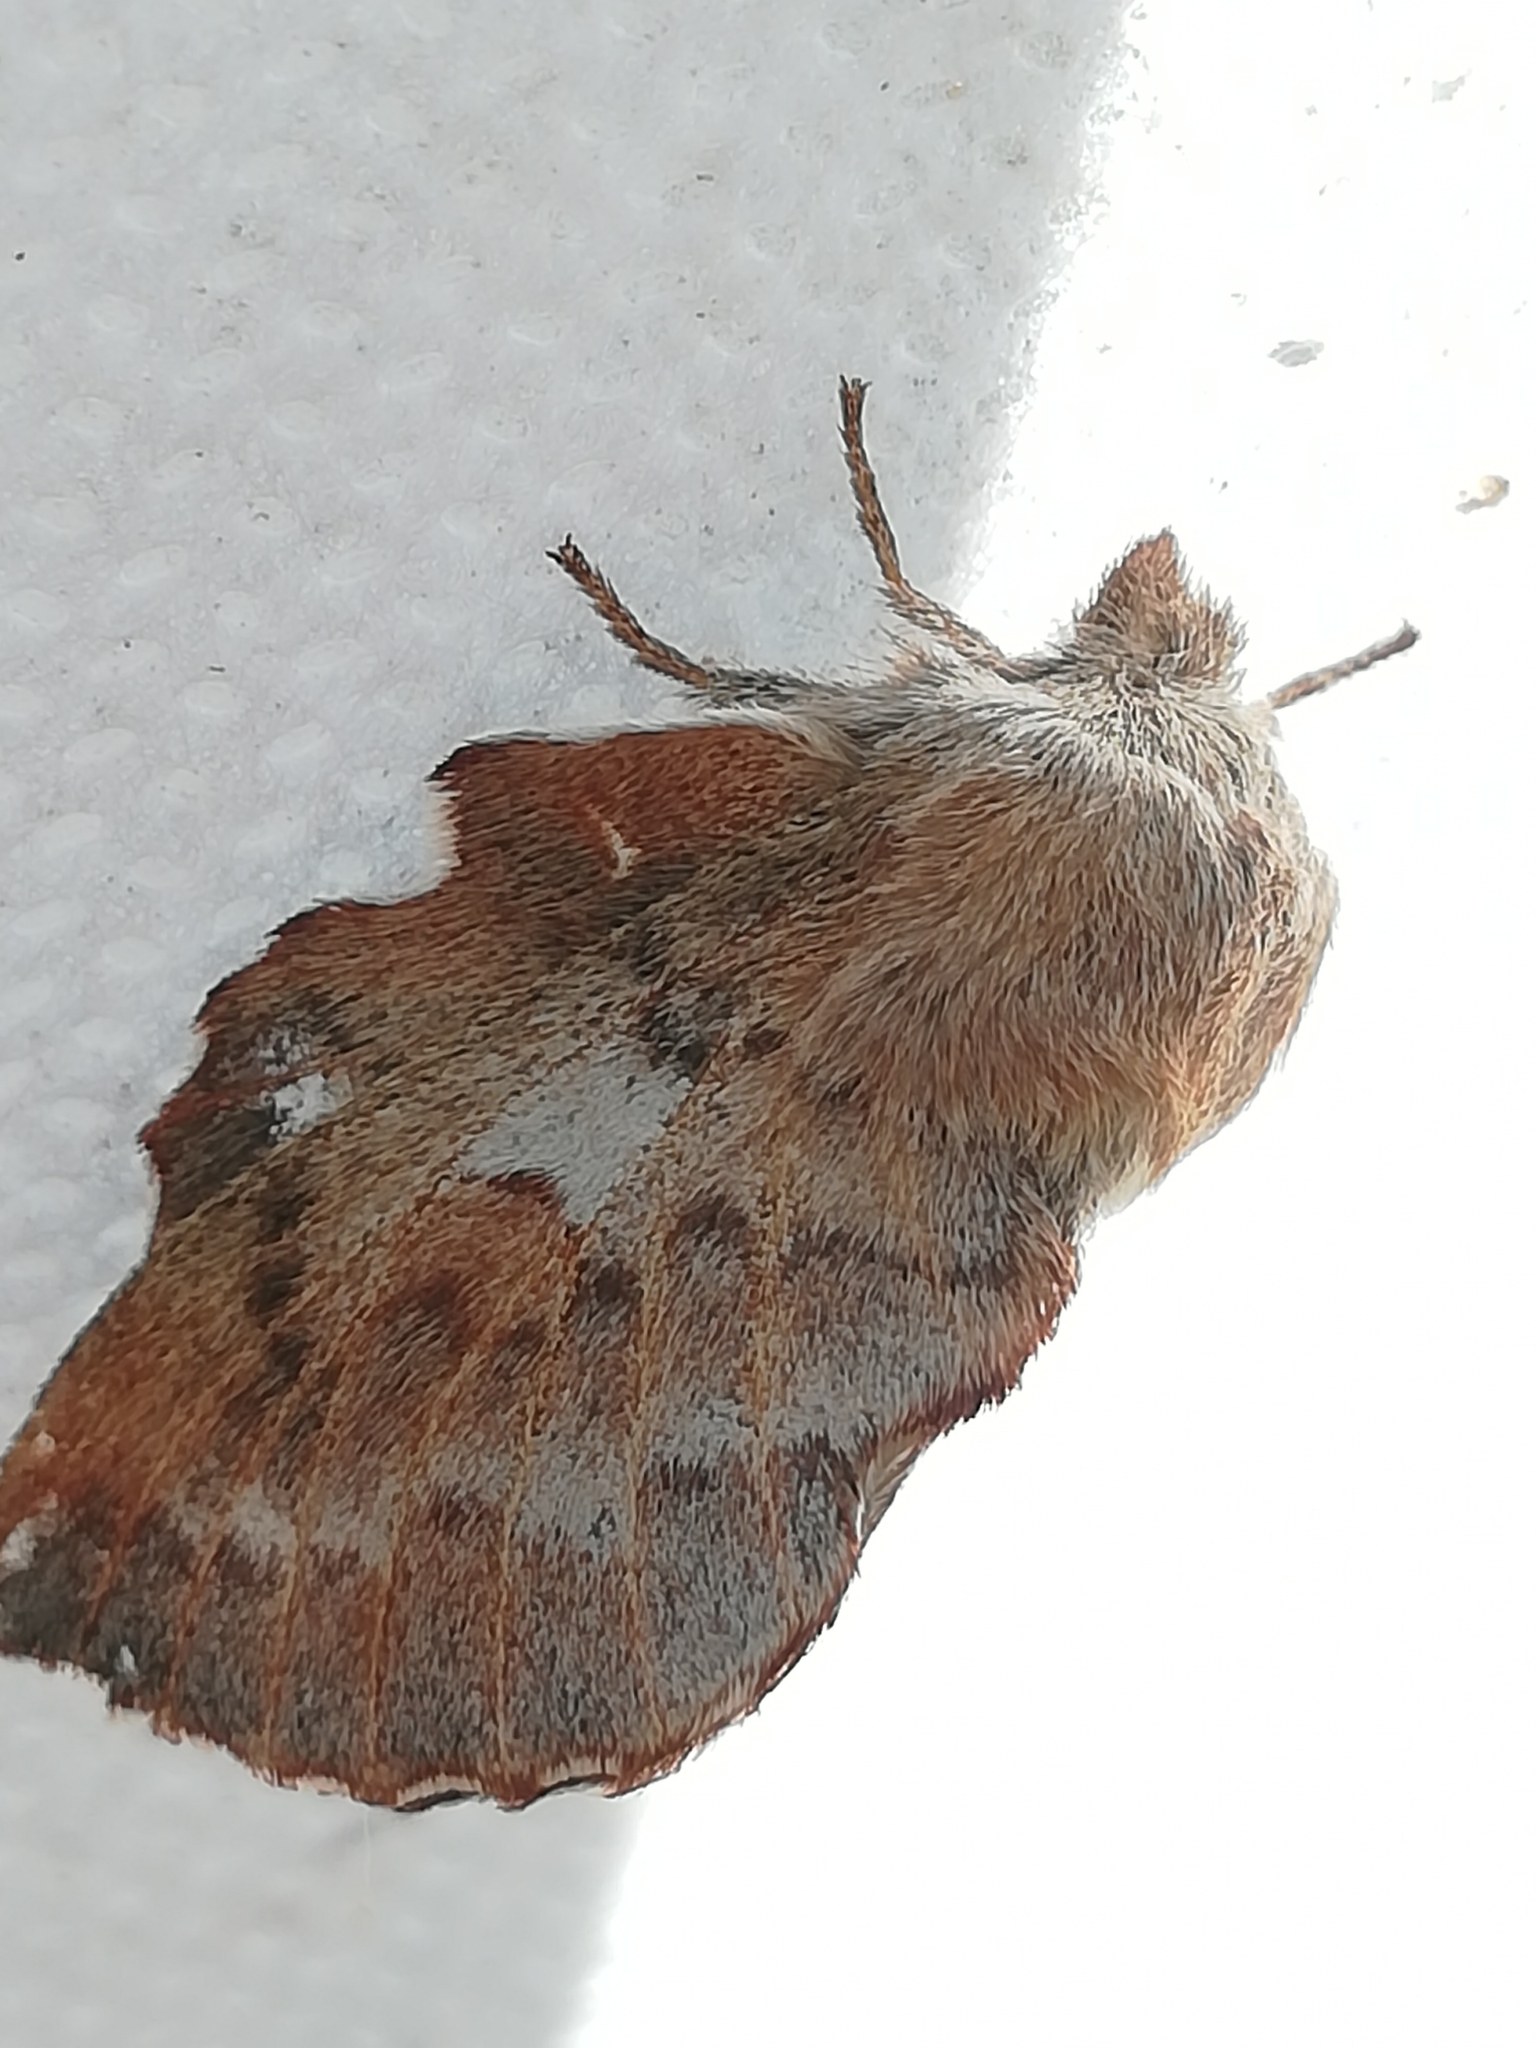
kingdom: Animalia
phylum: Arthropoda
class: Insecta
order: Lepidoptera
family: Lasiocampidae
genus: Phyllodesma
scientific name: Phyllodesma americana
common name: American lappet moth
